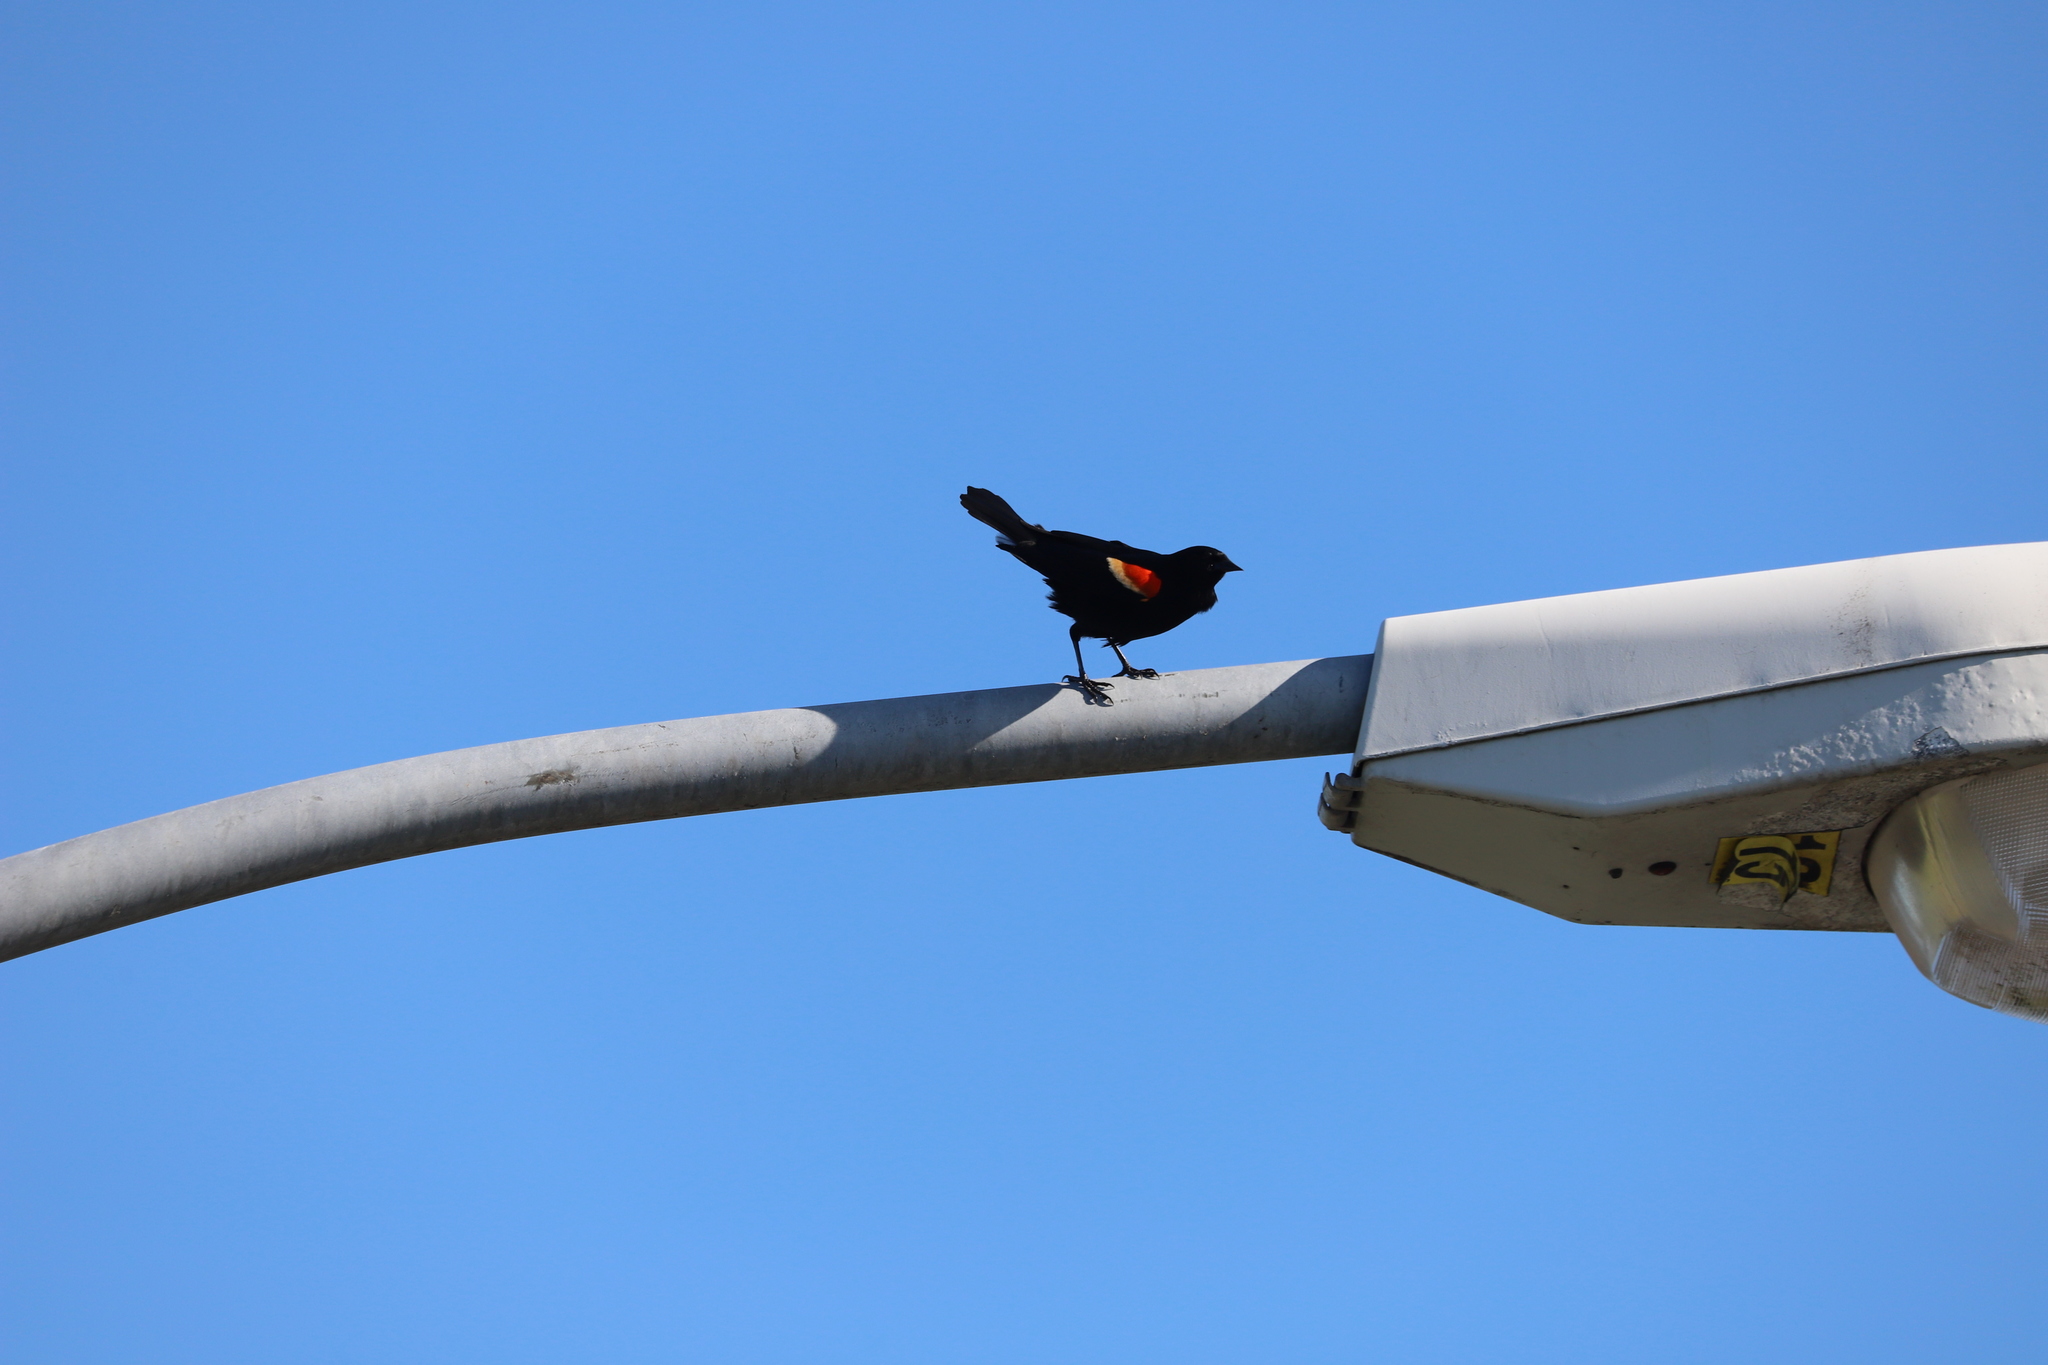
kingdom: Animalia
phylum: Chordata
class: Aves
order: Passeriformes
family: Icteridae
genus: Agelaius
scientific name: Agelaius phoeniceus
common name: Red-winged blackbird
